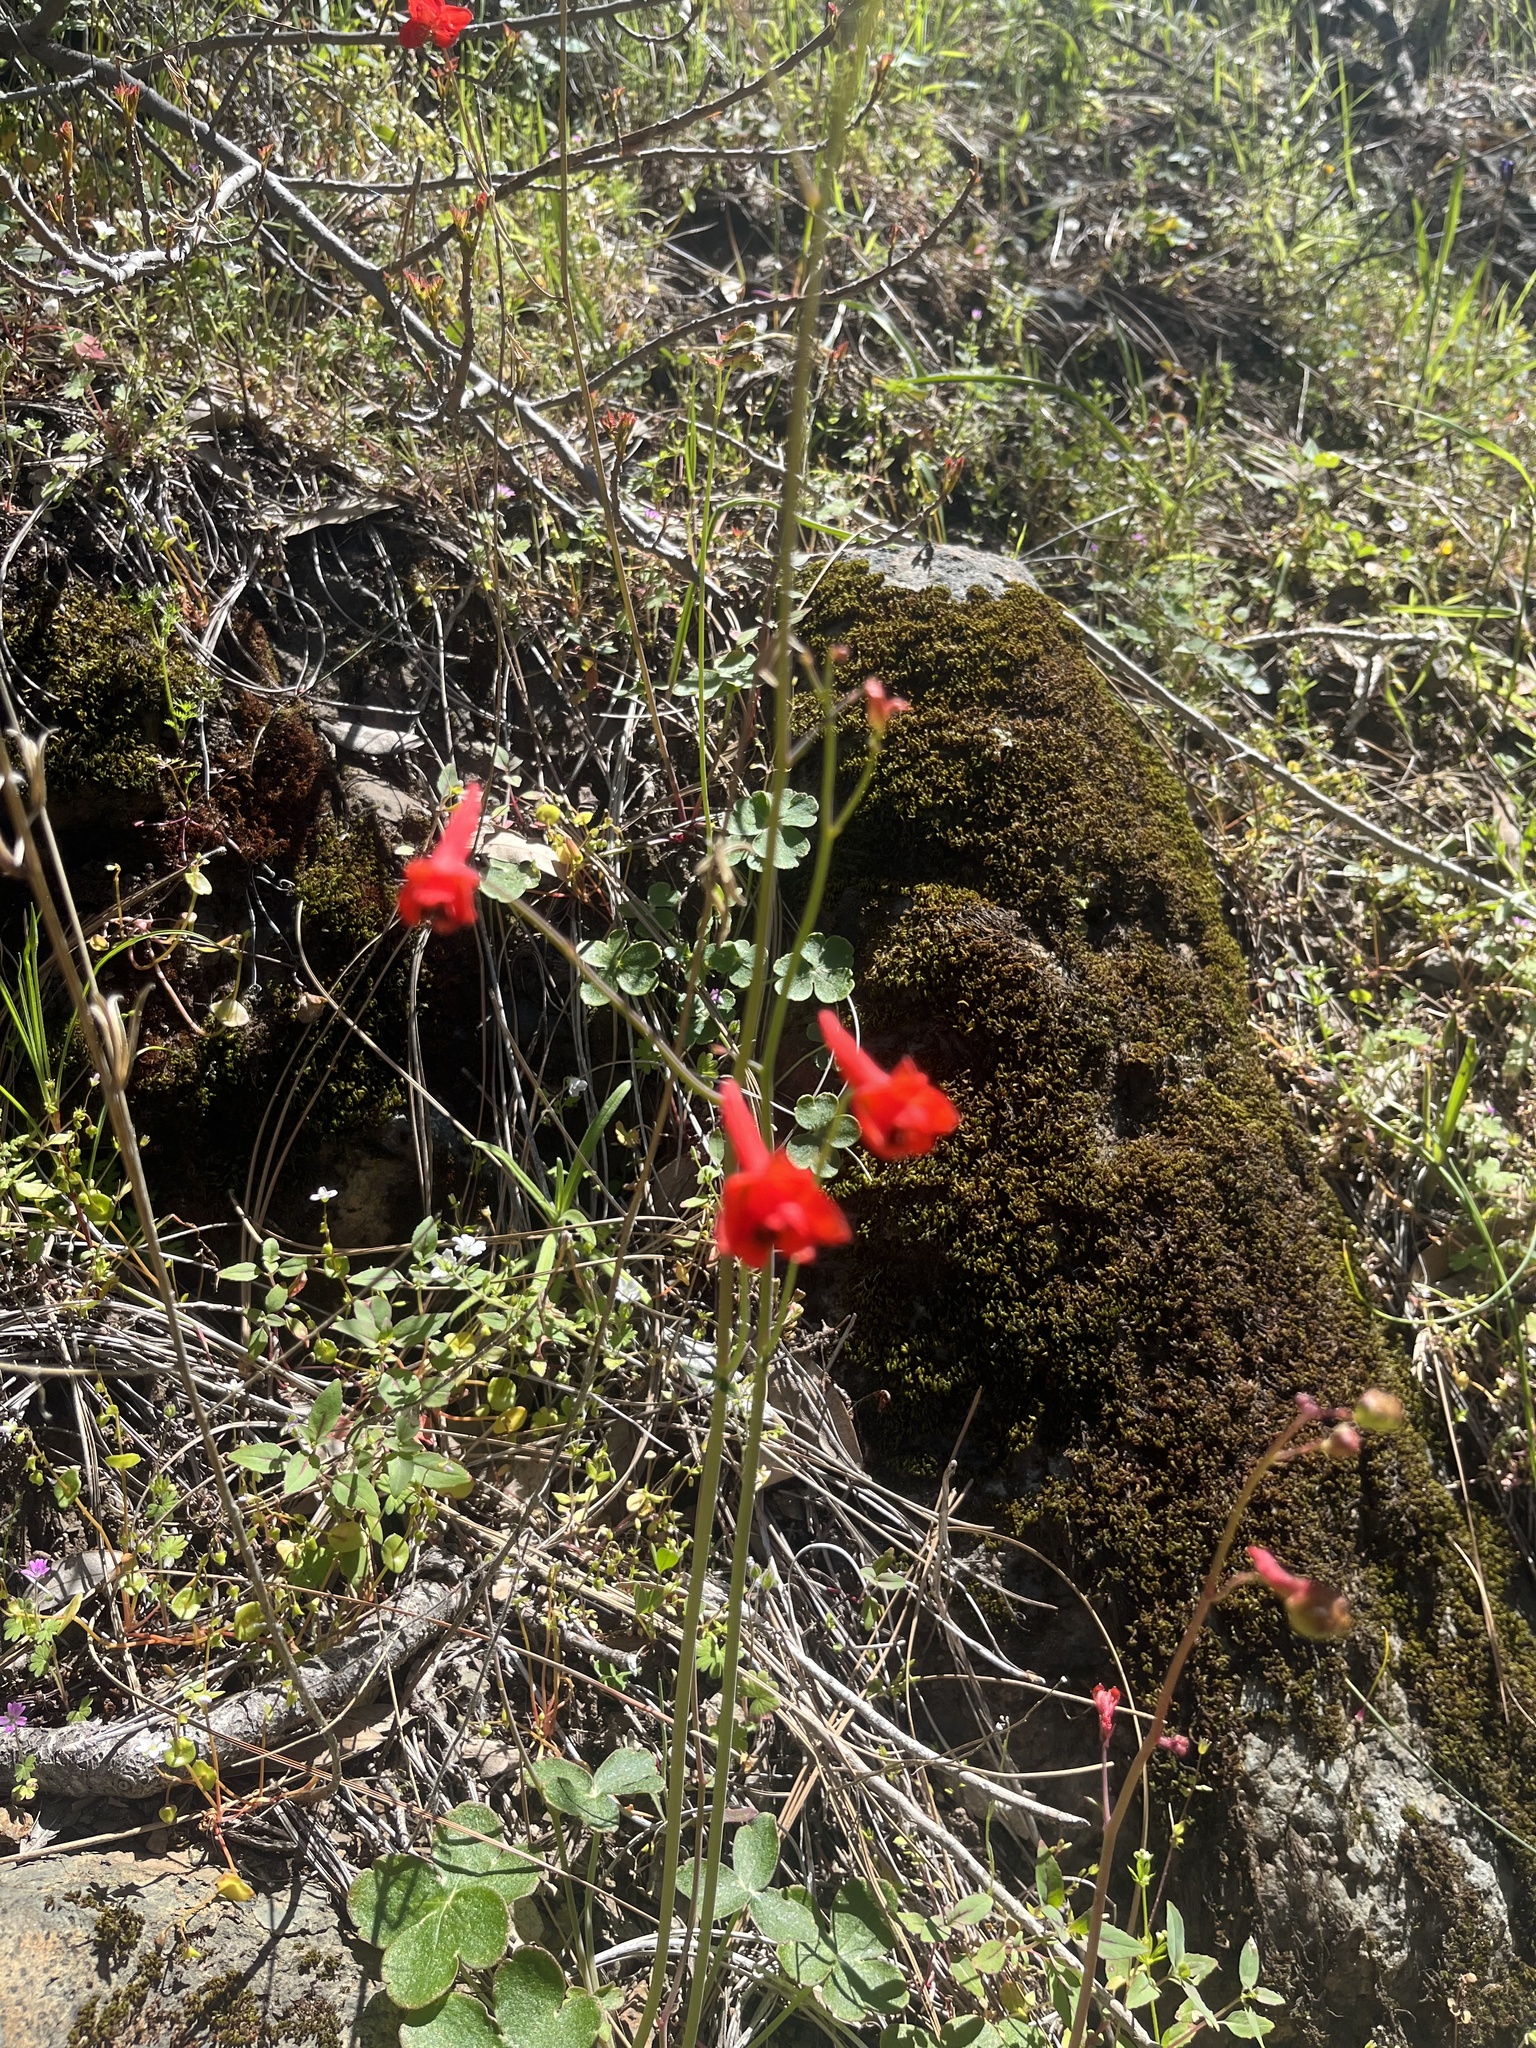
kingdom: Plantae
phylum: Tracheophyta
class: Magnoliopsida
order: Ranunculales
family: Ranunculaceae
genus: Delphinium
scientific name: Delphinium nudicaule
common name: Red larkspur
